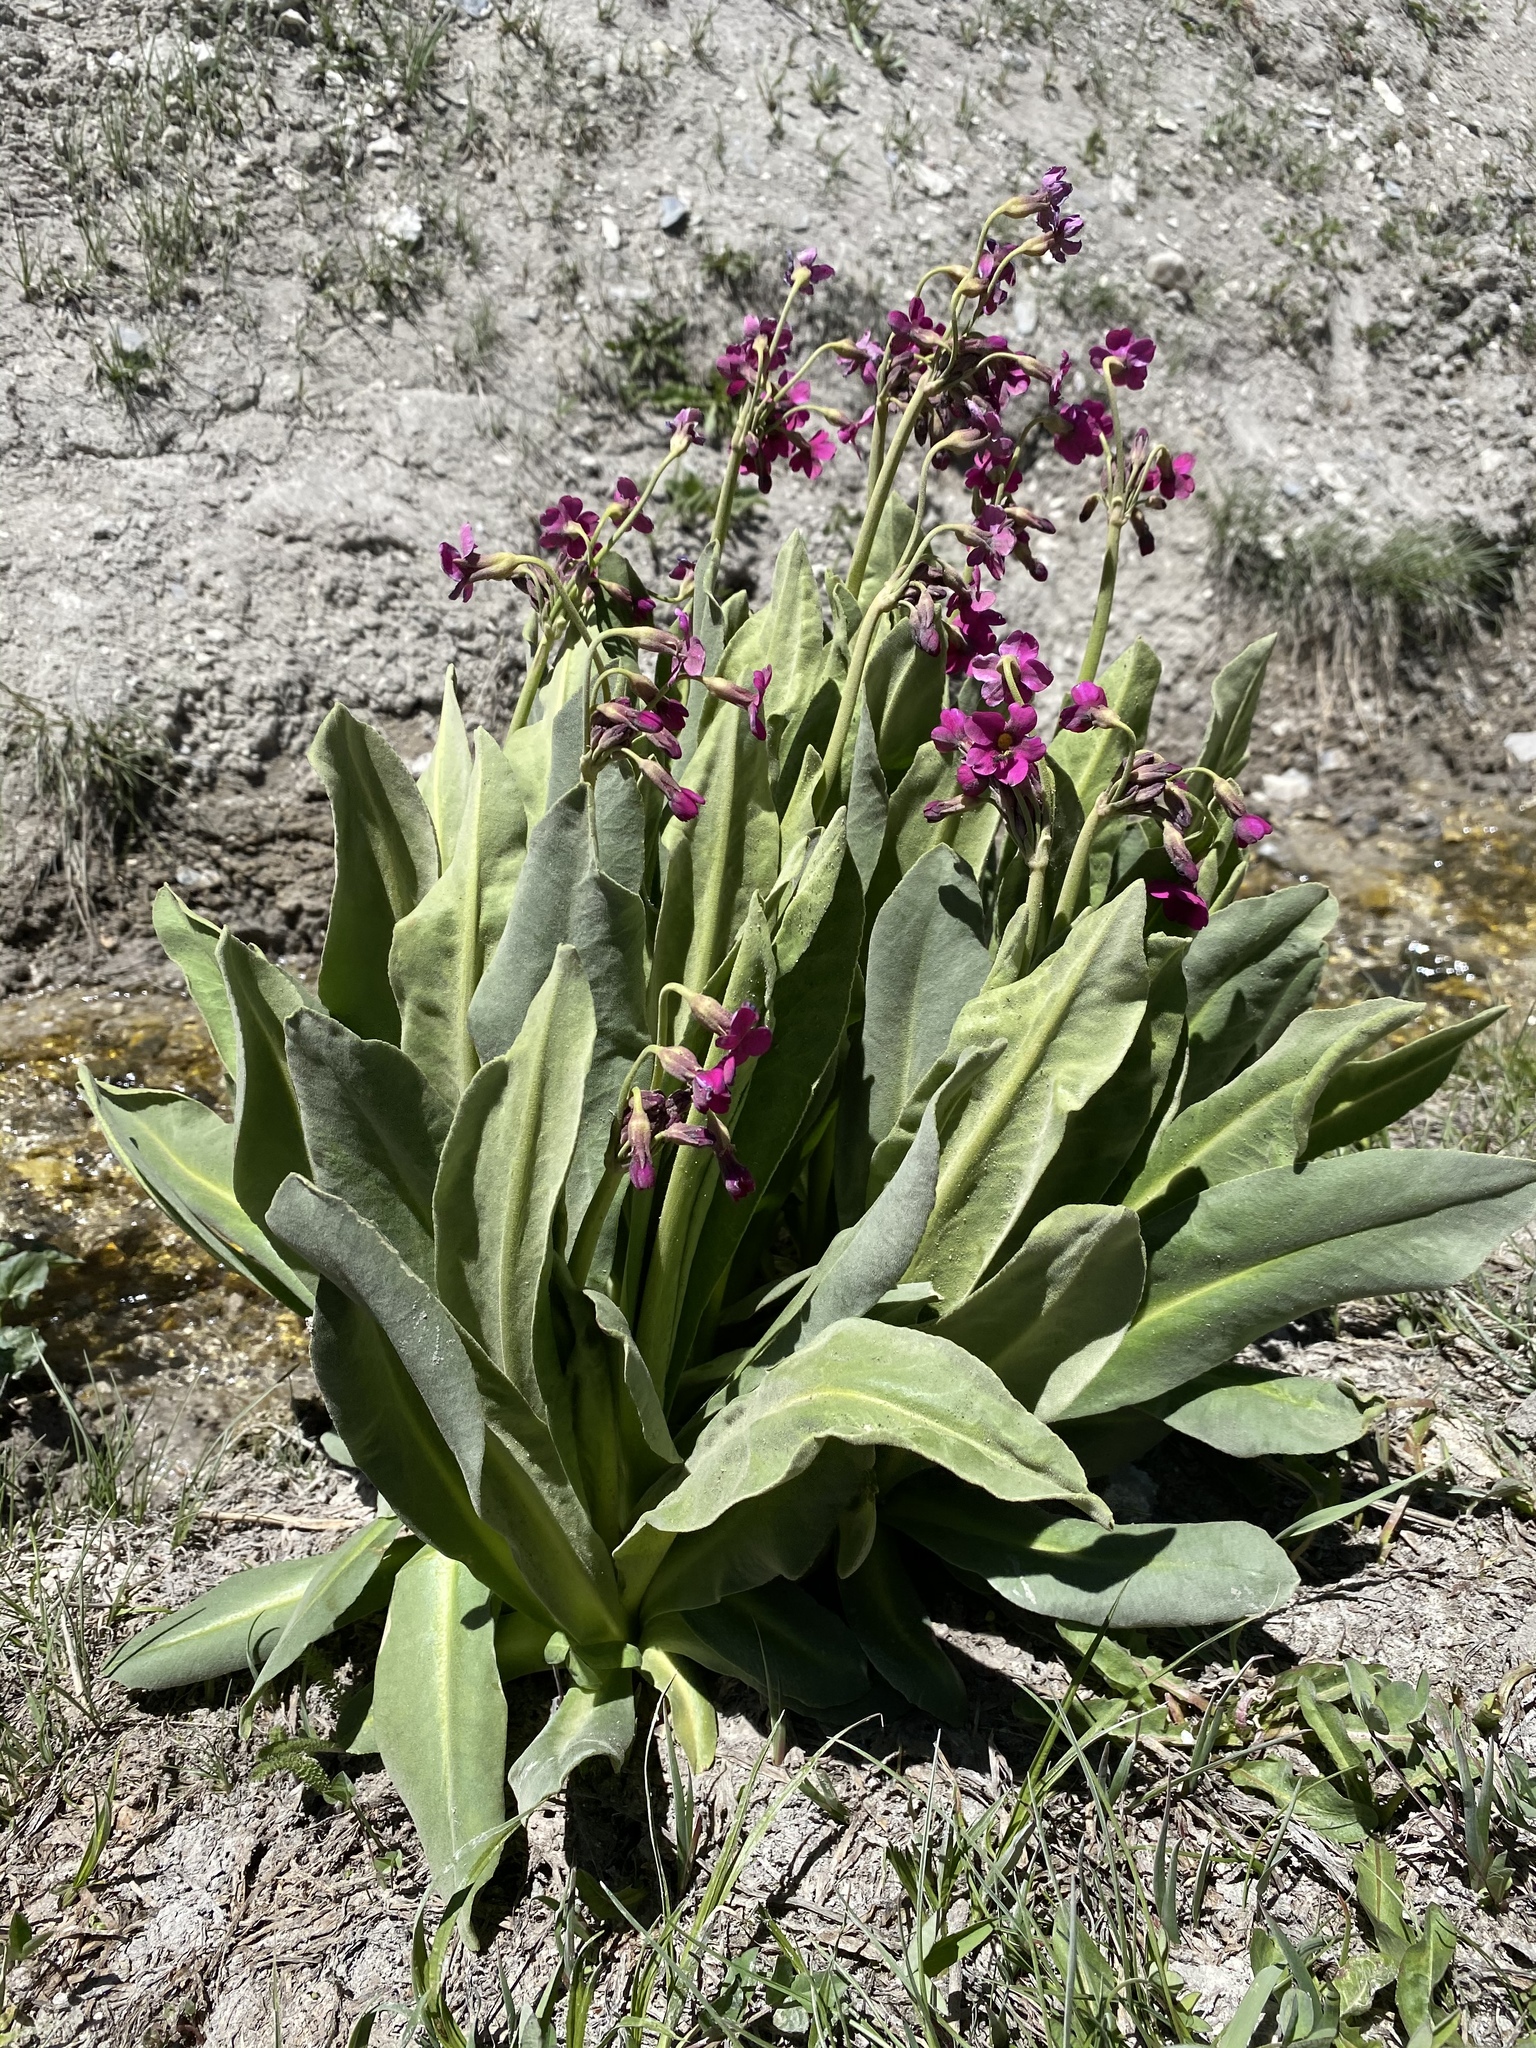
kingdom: Plantae
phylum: Tracheophyta
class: Magnoliopsida
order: Ericales
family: Primulaceae
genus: Primula
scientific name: Primula parryi
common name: Parry's primrose
